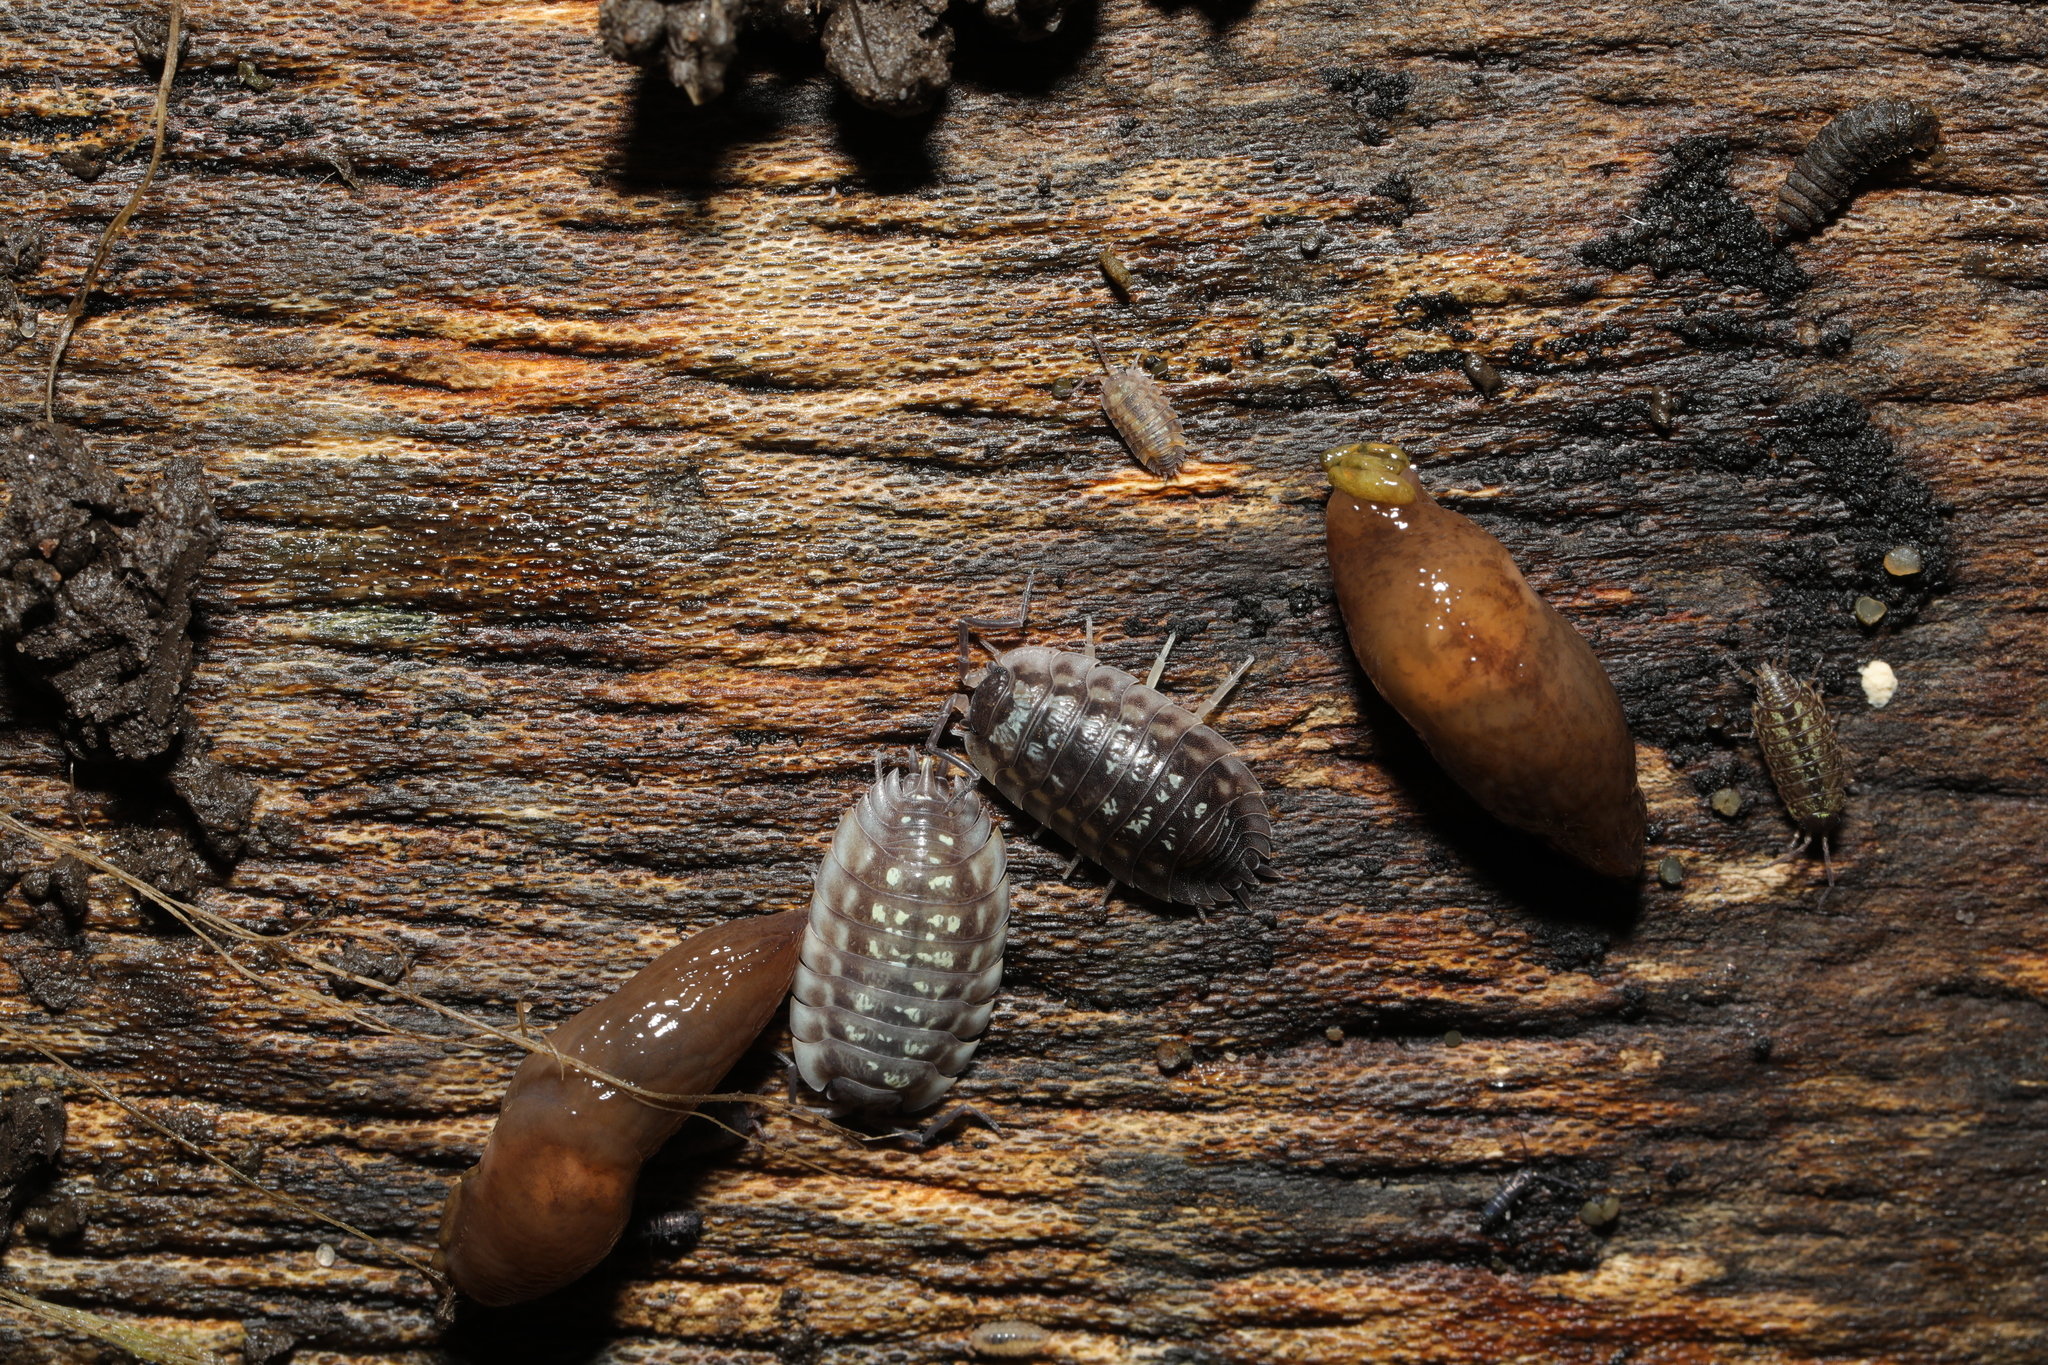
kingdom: Animalia
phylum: Arthropoda
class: Malacostraca
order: Isopoda
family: Philosciidae
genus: Philoscia
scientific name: Philoscia muscorum
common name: Common striped woodlouse
